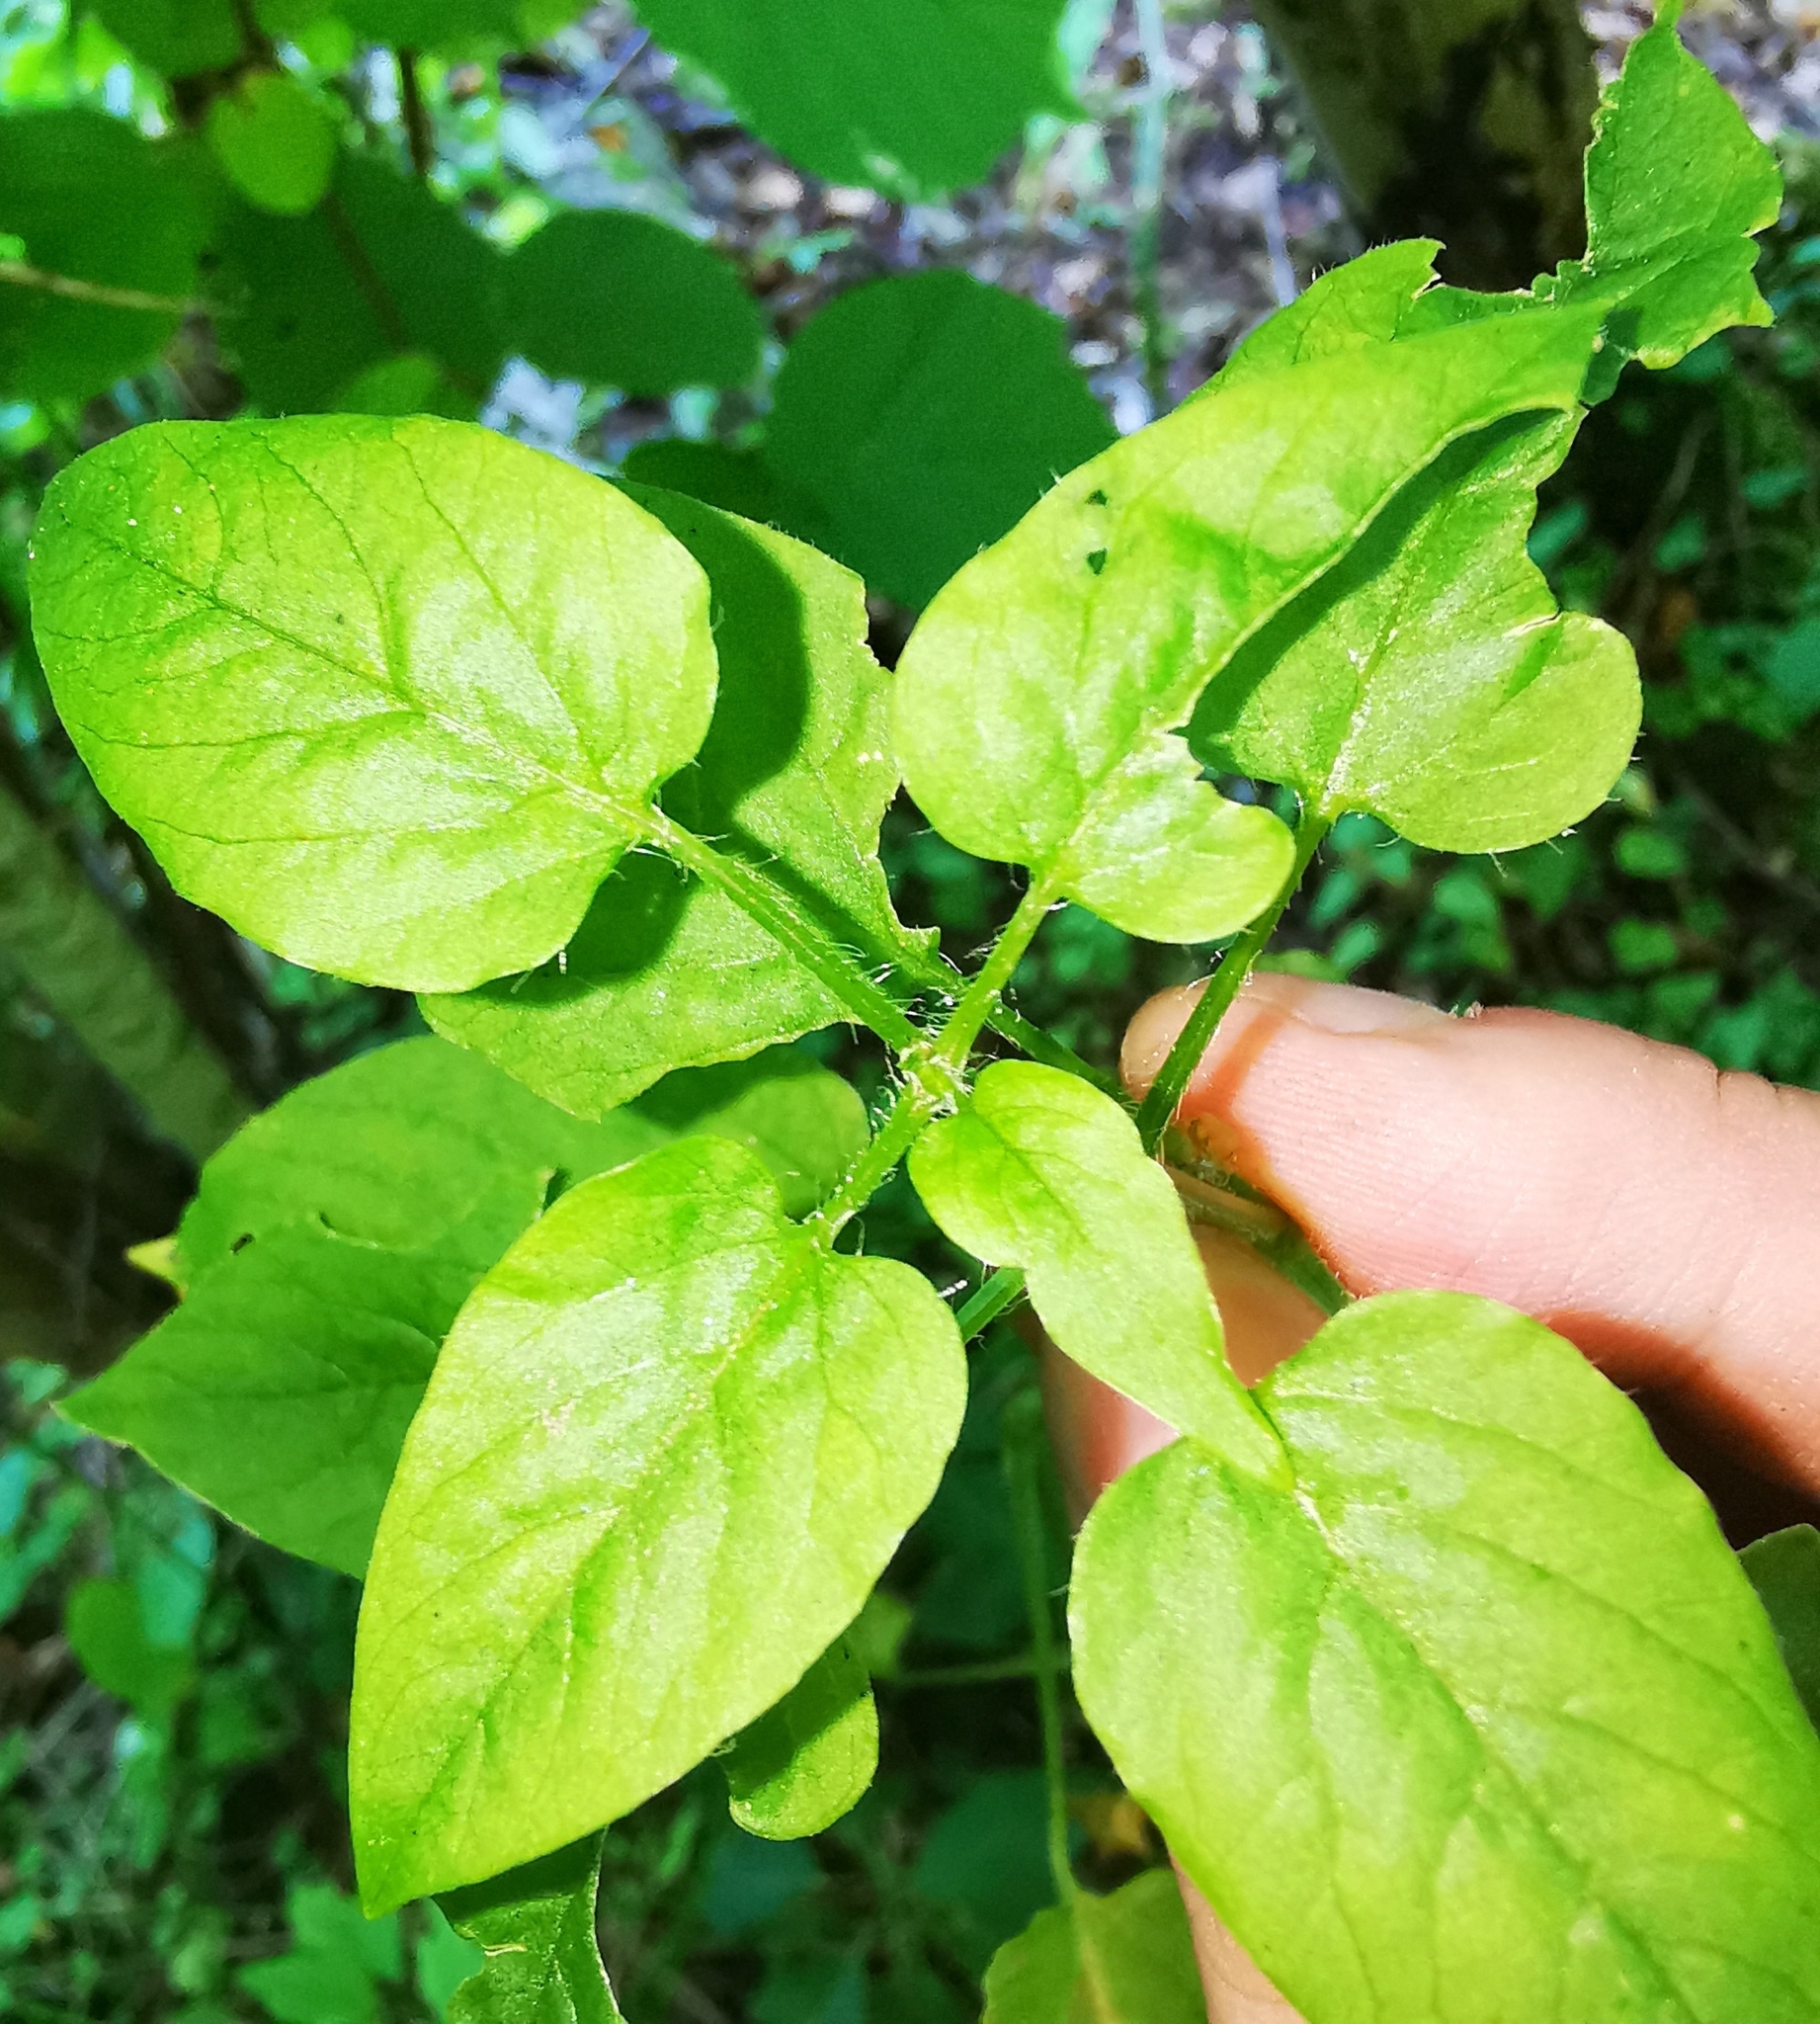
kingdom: Plantae
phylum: Tracheophyta
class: Magnoliopsida
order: Caryophyllales
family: Caryophyllaceae
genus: Stellaria
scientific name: Stellaria nemorum
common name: Wood stitchwort
